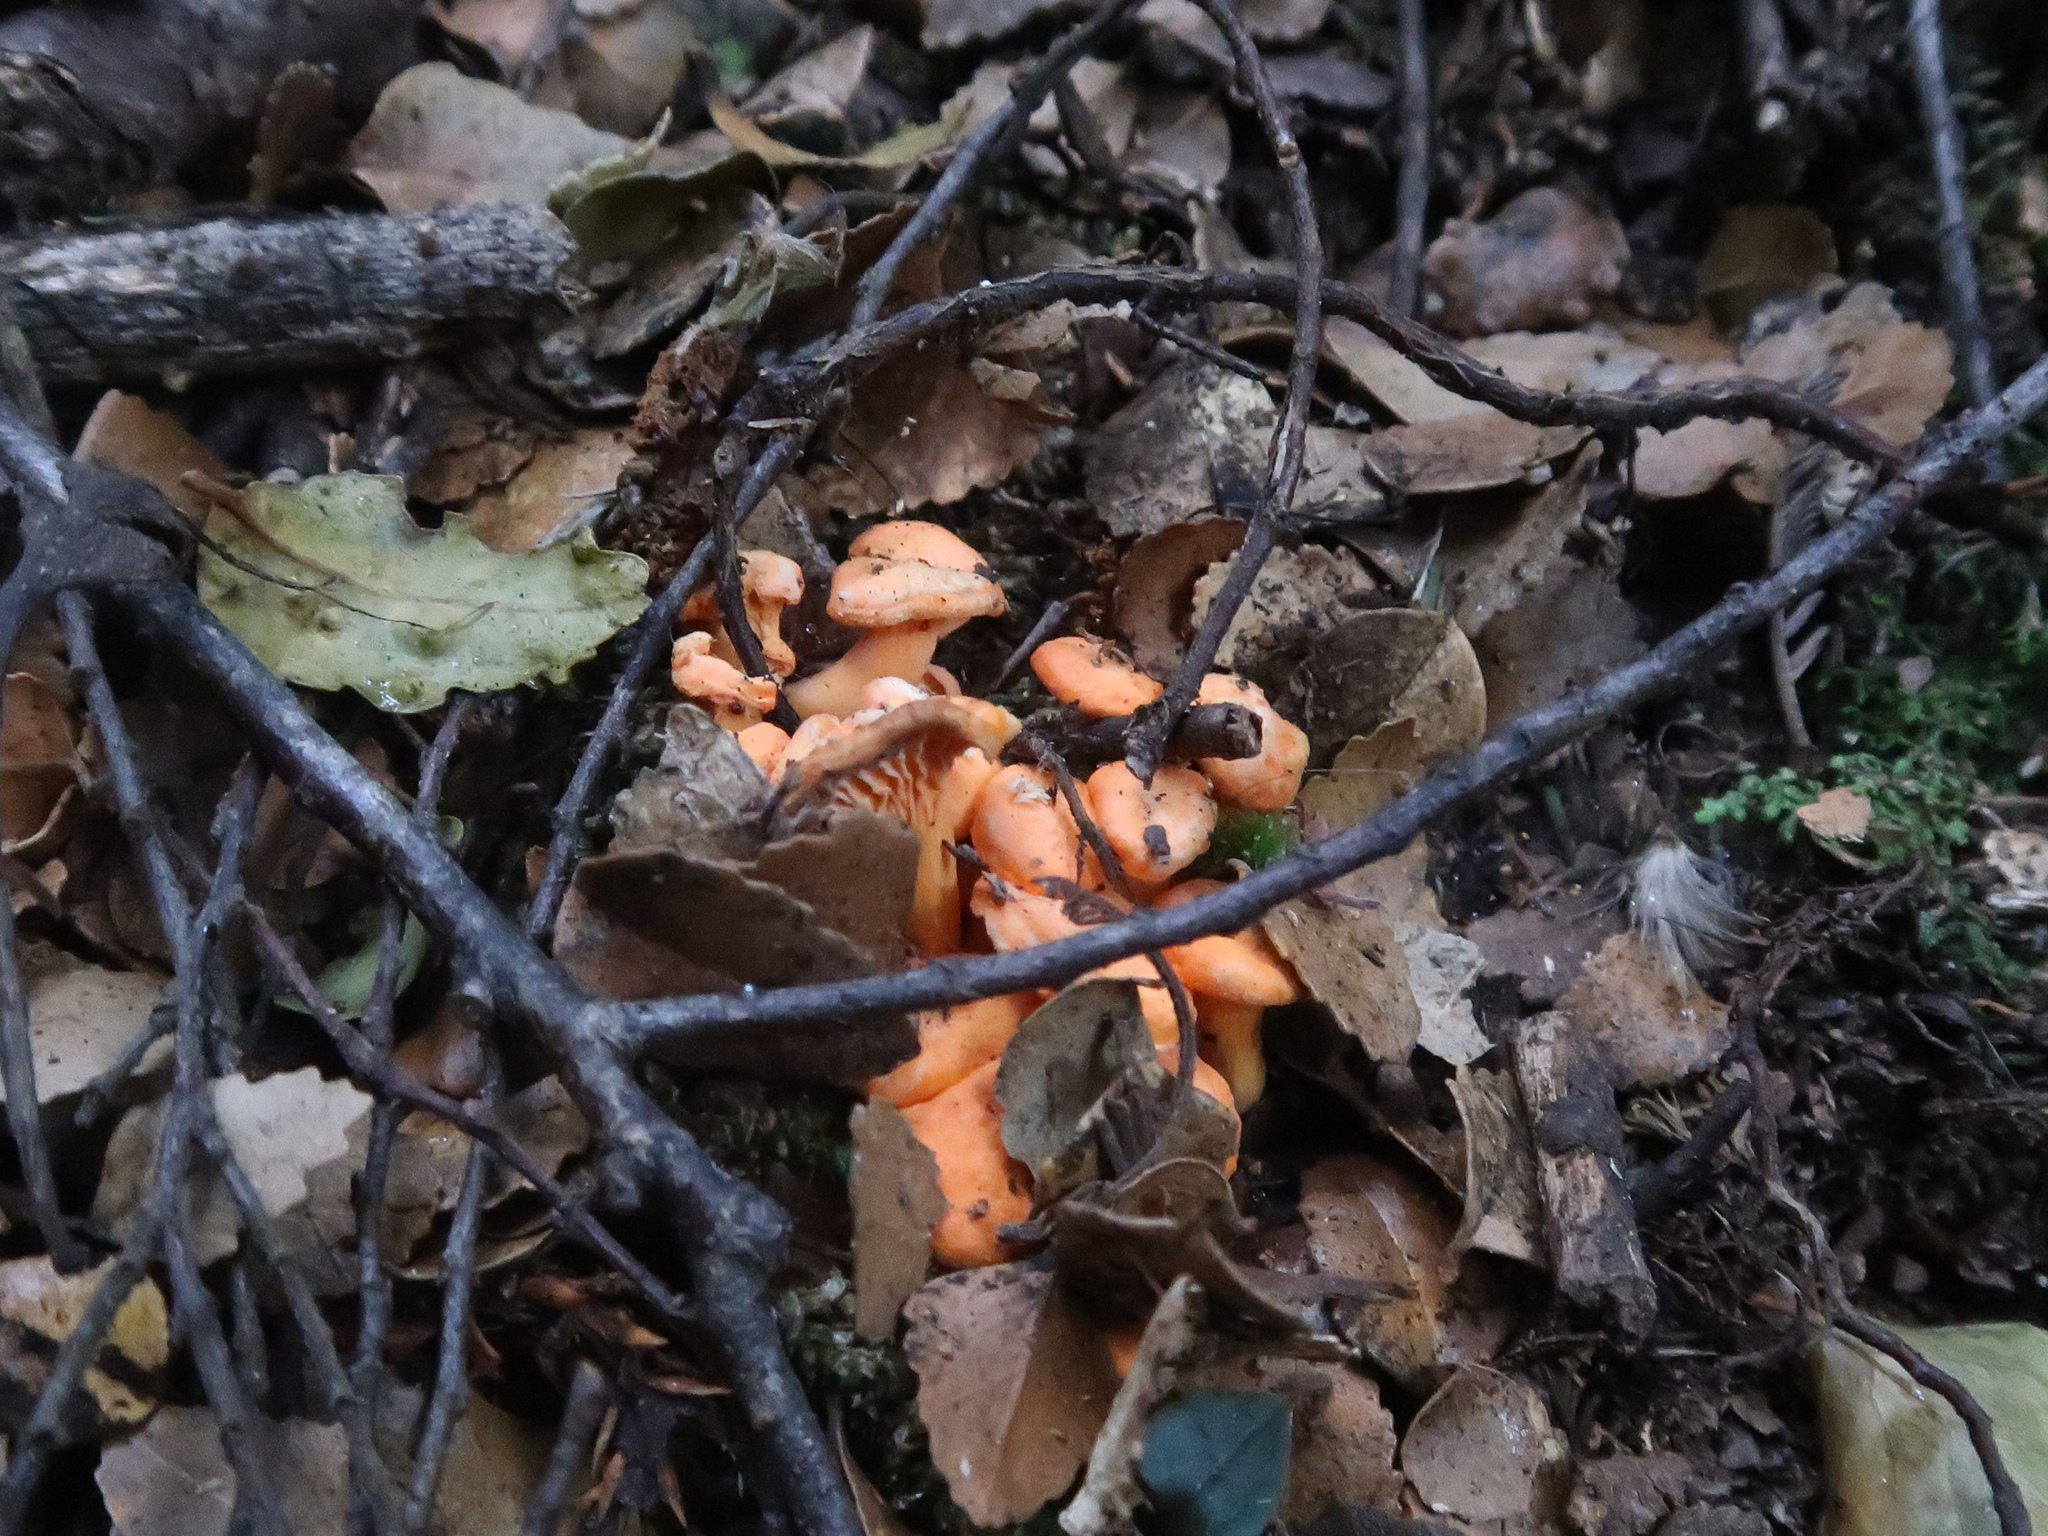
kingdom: Fungi
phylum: Basidiomycota
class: Agaricomycetes
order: Cantharellales
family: Hydnaceae
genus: Cantharellus
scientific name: Cantharellus
